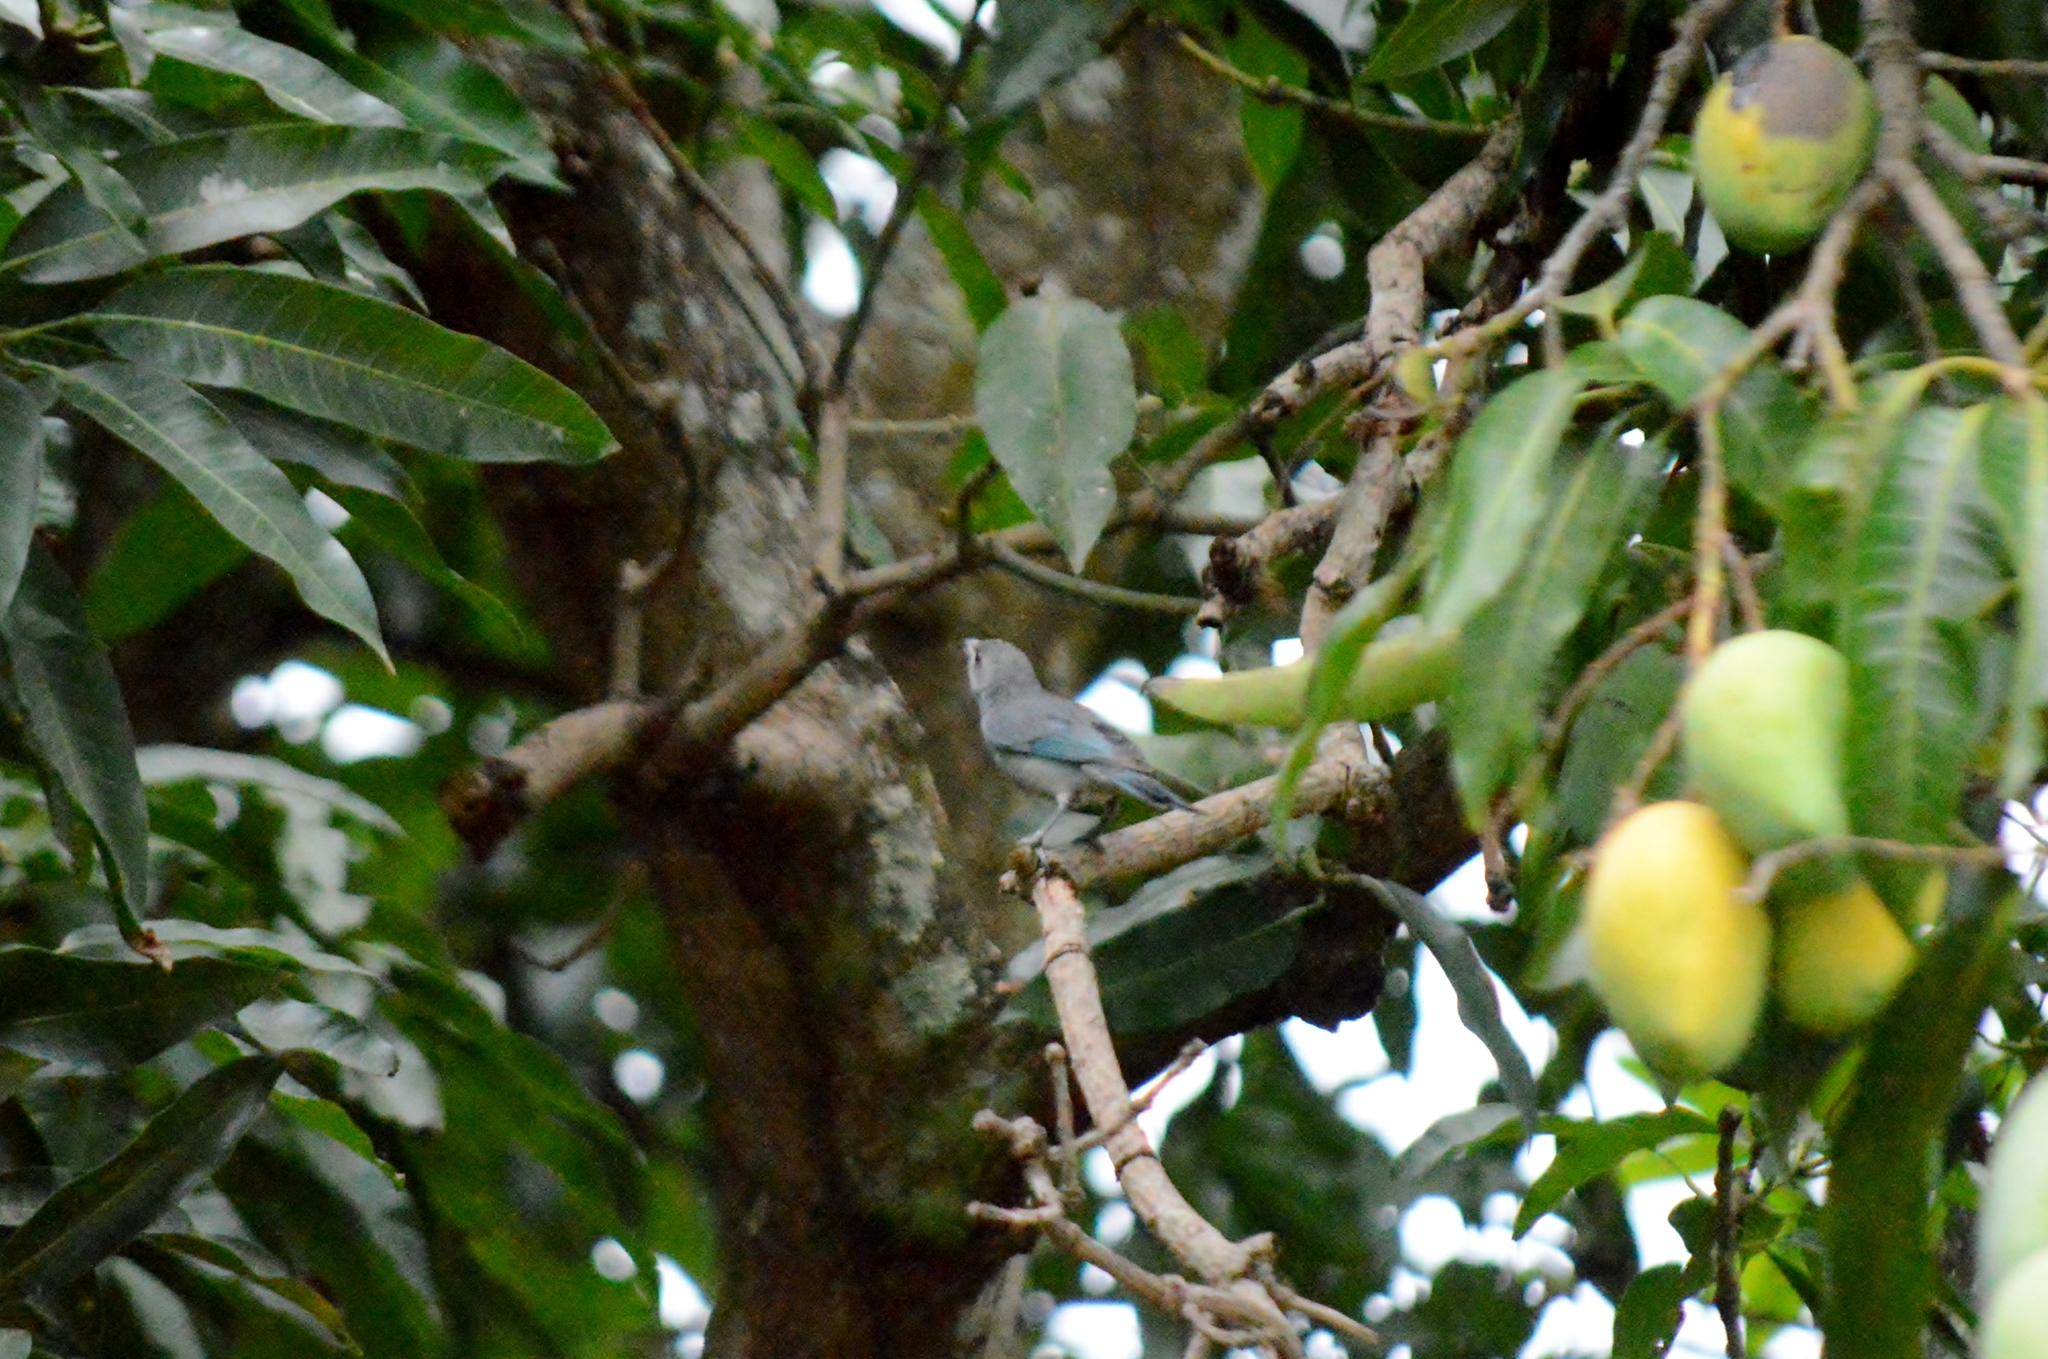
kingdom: Animalia
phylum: Chordata
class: Aves
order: Passeriformes
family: Thraupidae
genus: Thraupis
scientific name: Thraupis sayaca
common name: Sayaca tanager
